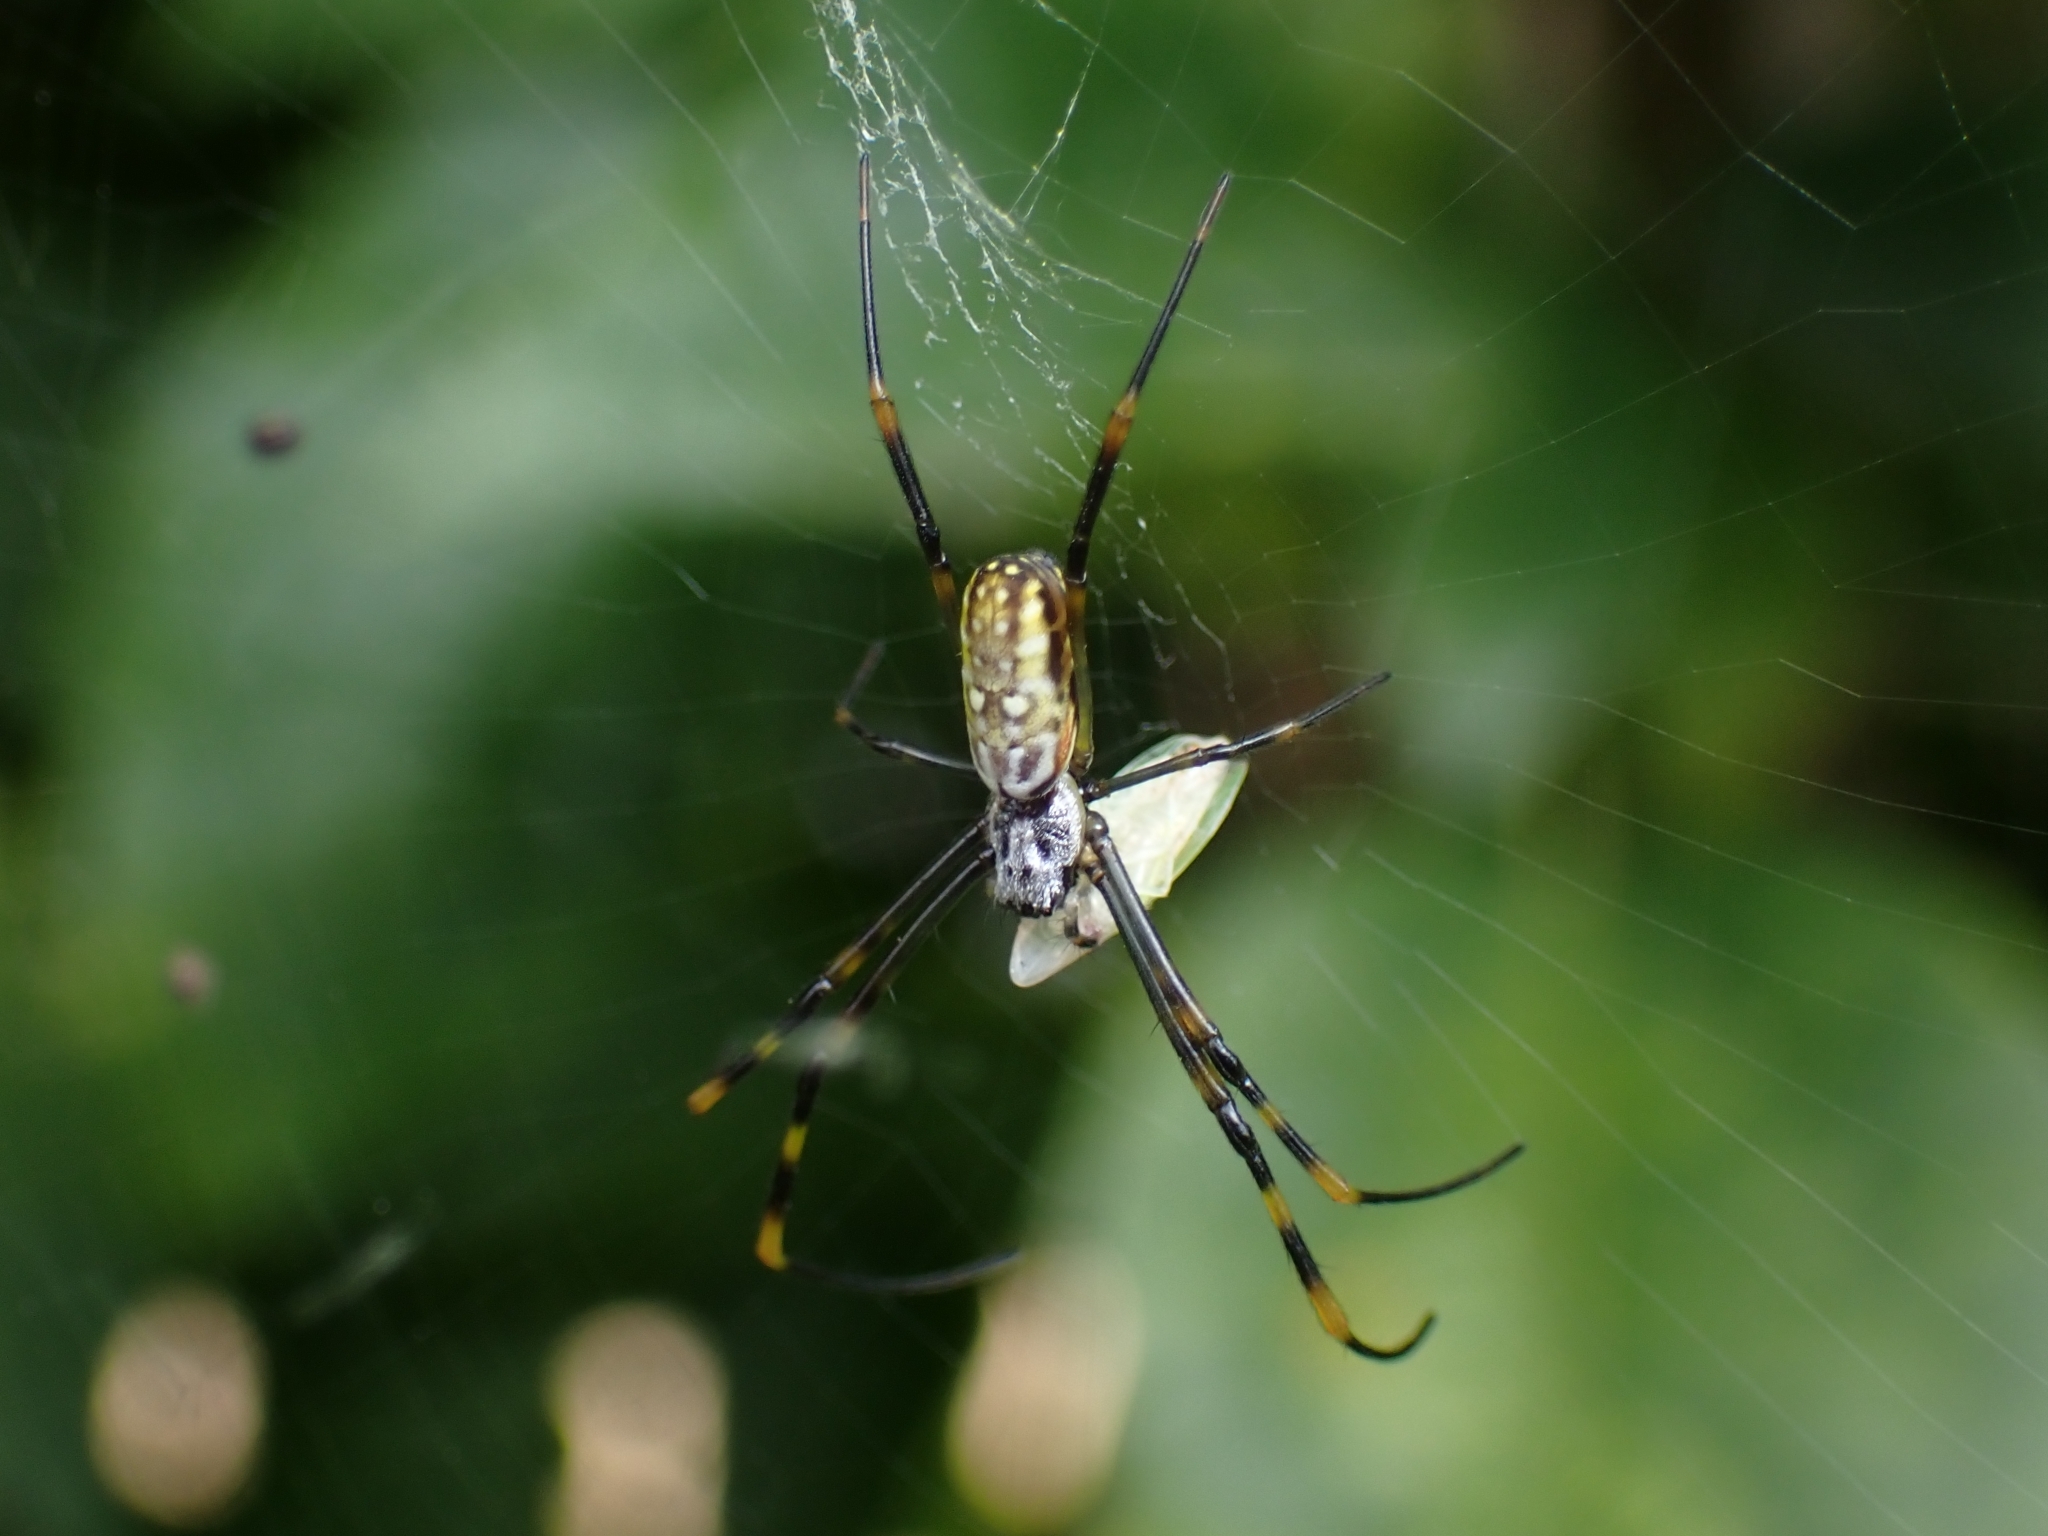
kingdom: Animalia
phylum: Arthropoda
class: Arachnida
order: Araneae
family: Araneidae
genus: Trichonephila
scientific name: Trichonephila plumipes
